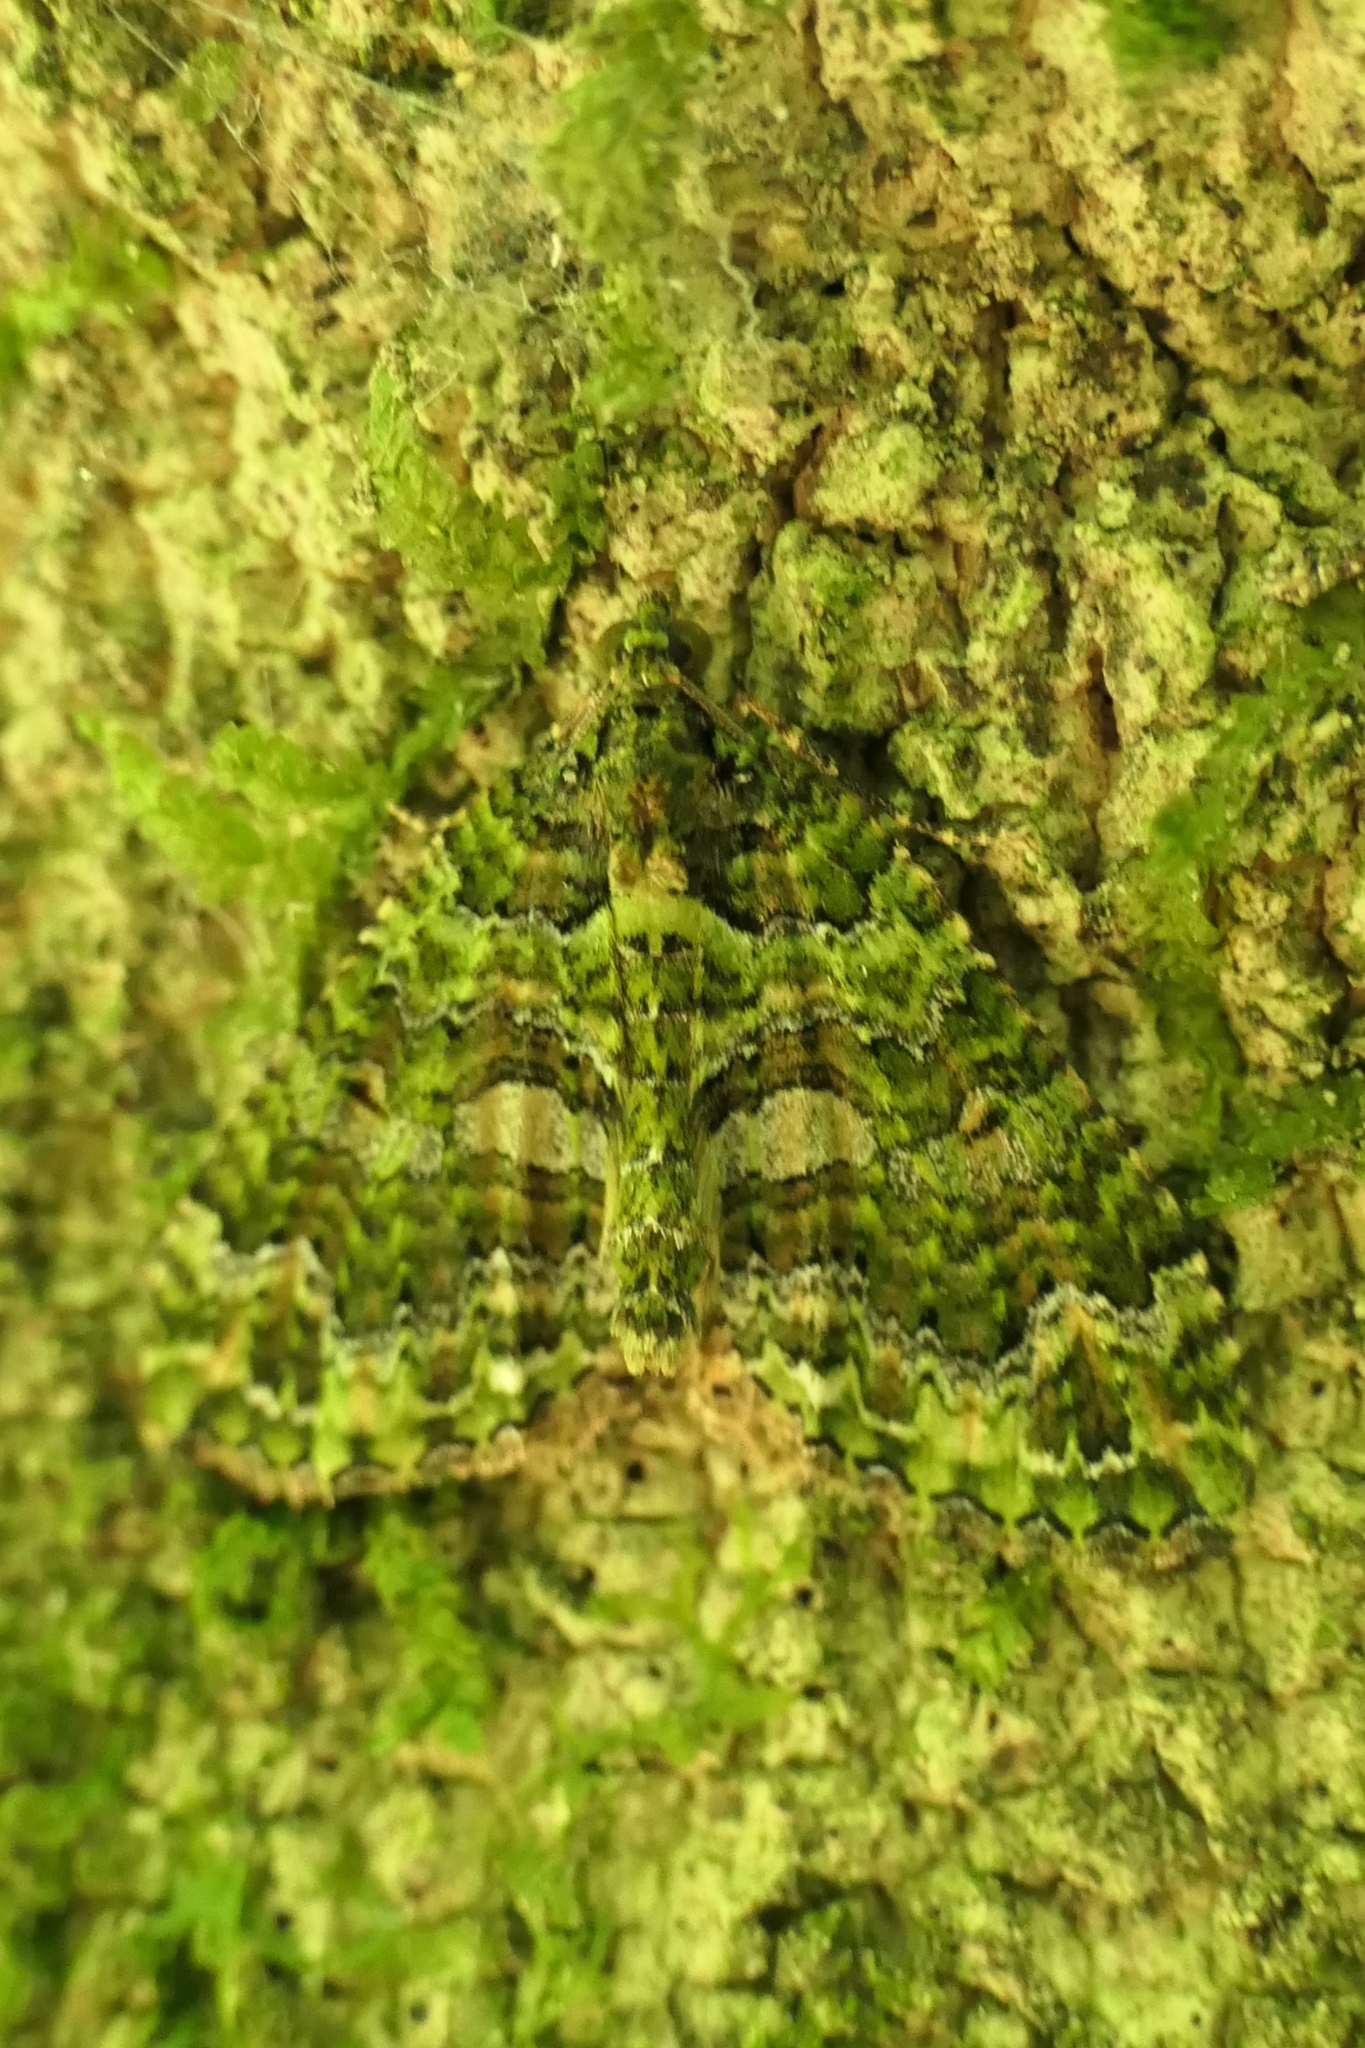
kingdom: Animalia
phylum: Arthropoda
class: Insecta
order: Lepidoptera
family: Geometridae
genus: Austrocidaria
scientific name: Austrocidaria similata
